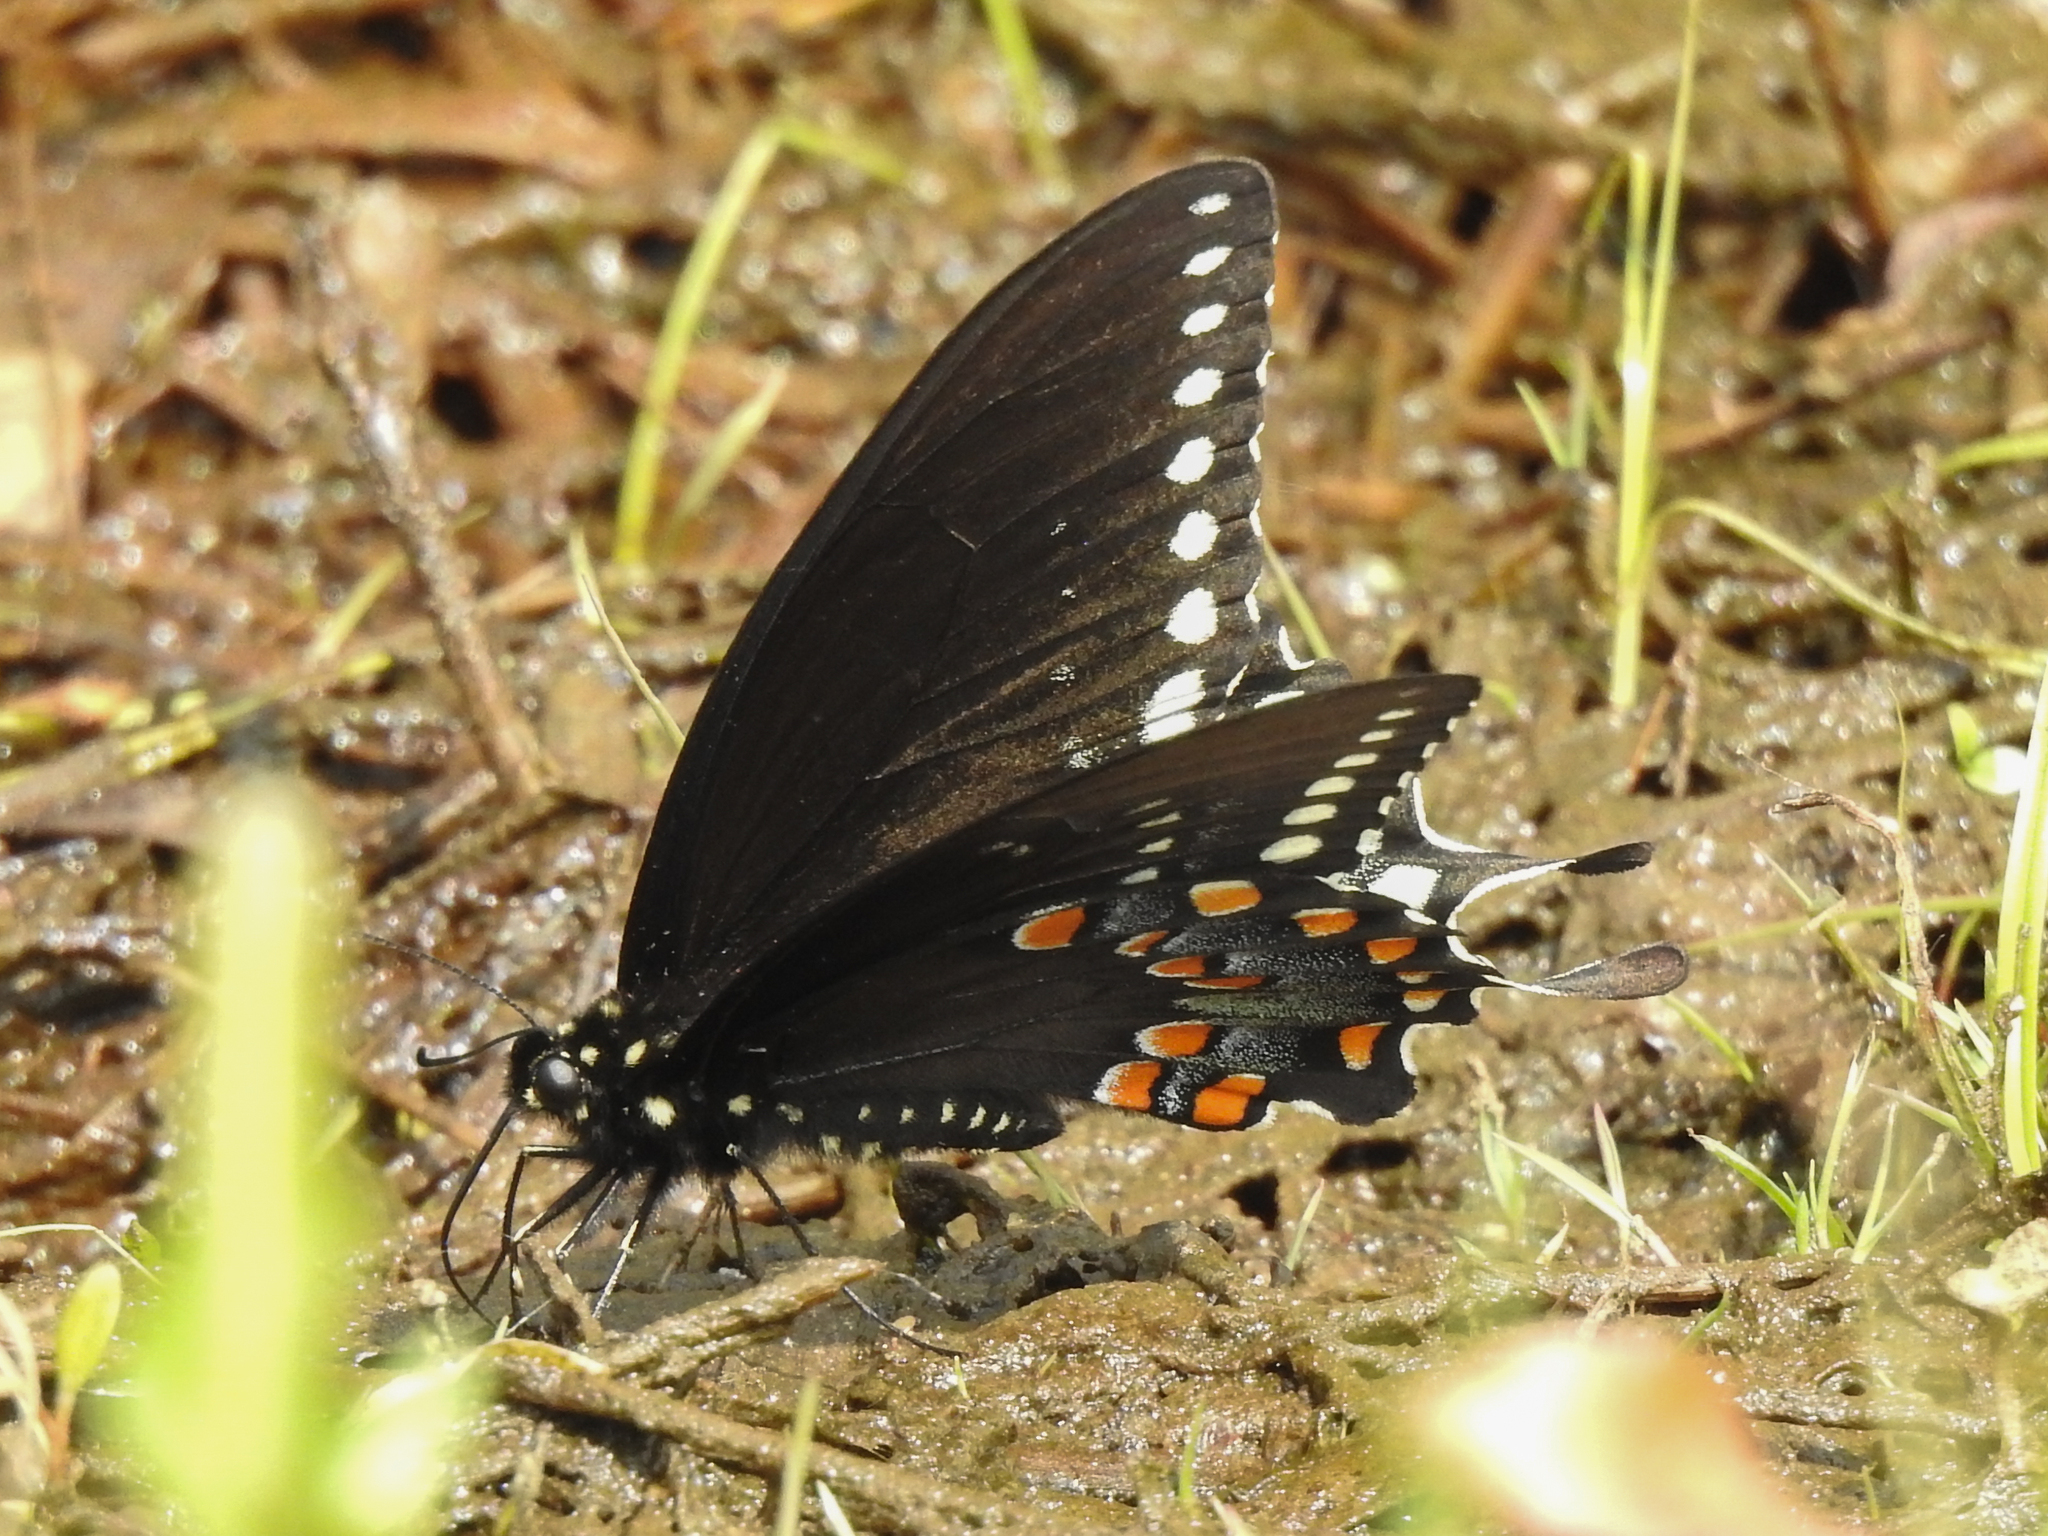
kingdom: Animalia
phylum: Arthropoda
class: Insecta
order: Lepidoptera
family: Papilionidae
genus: Papilio
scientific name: Papilio troilus
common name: Spicebush swallowtail
